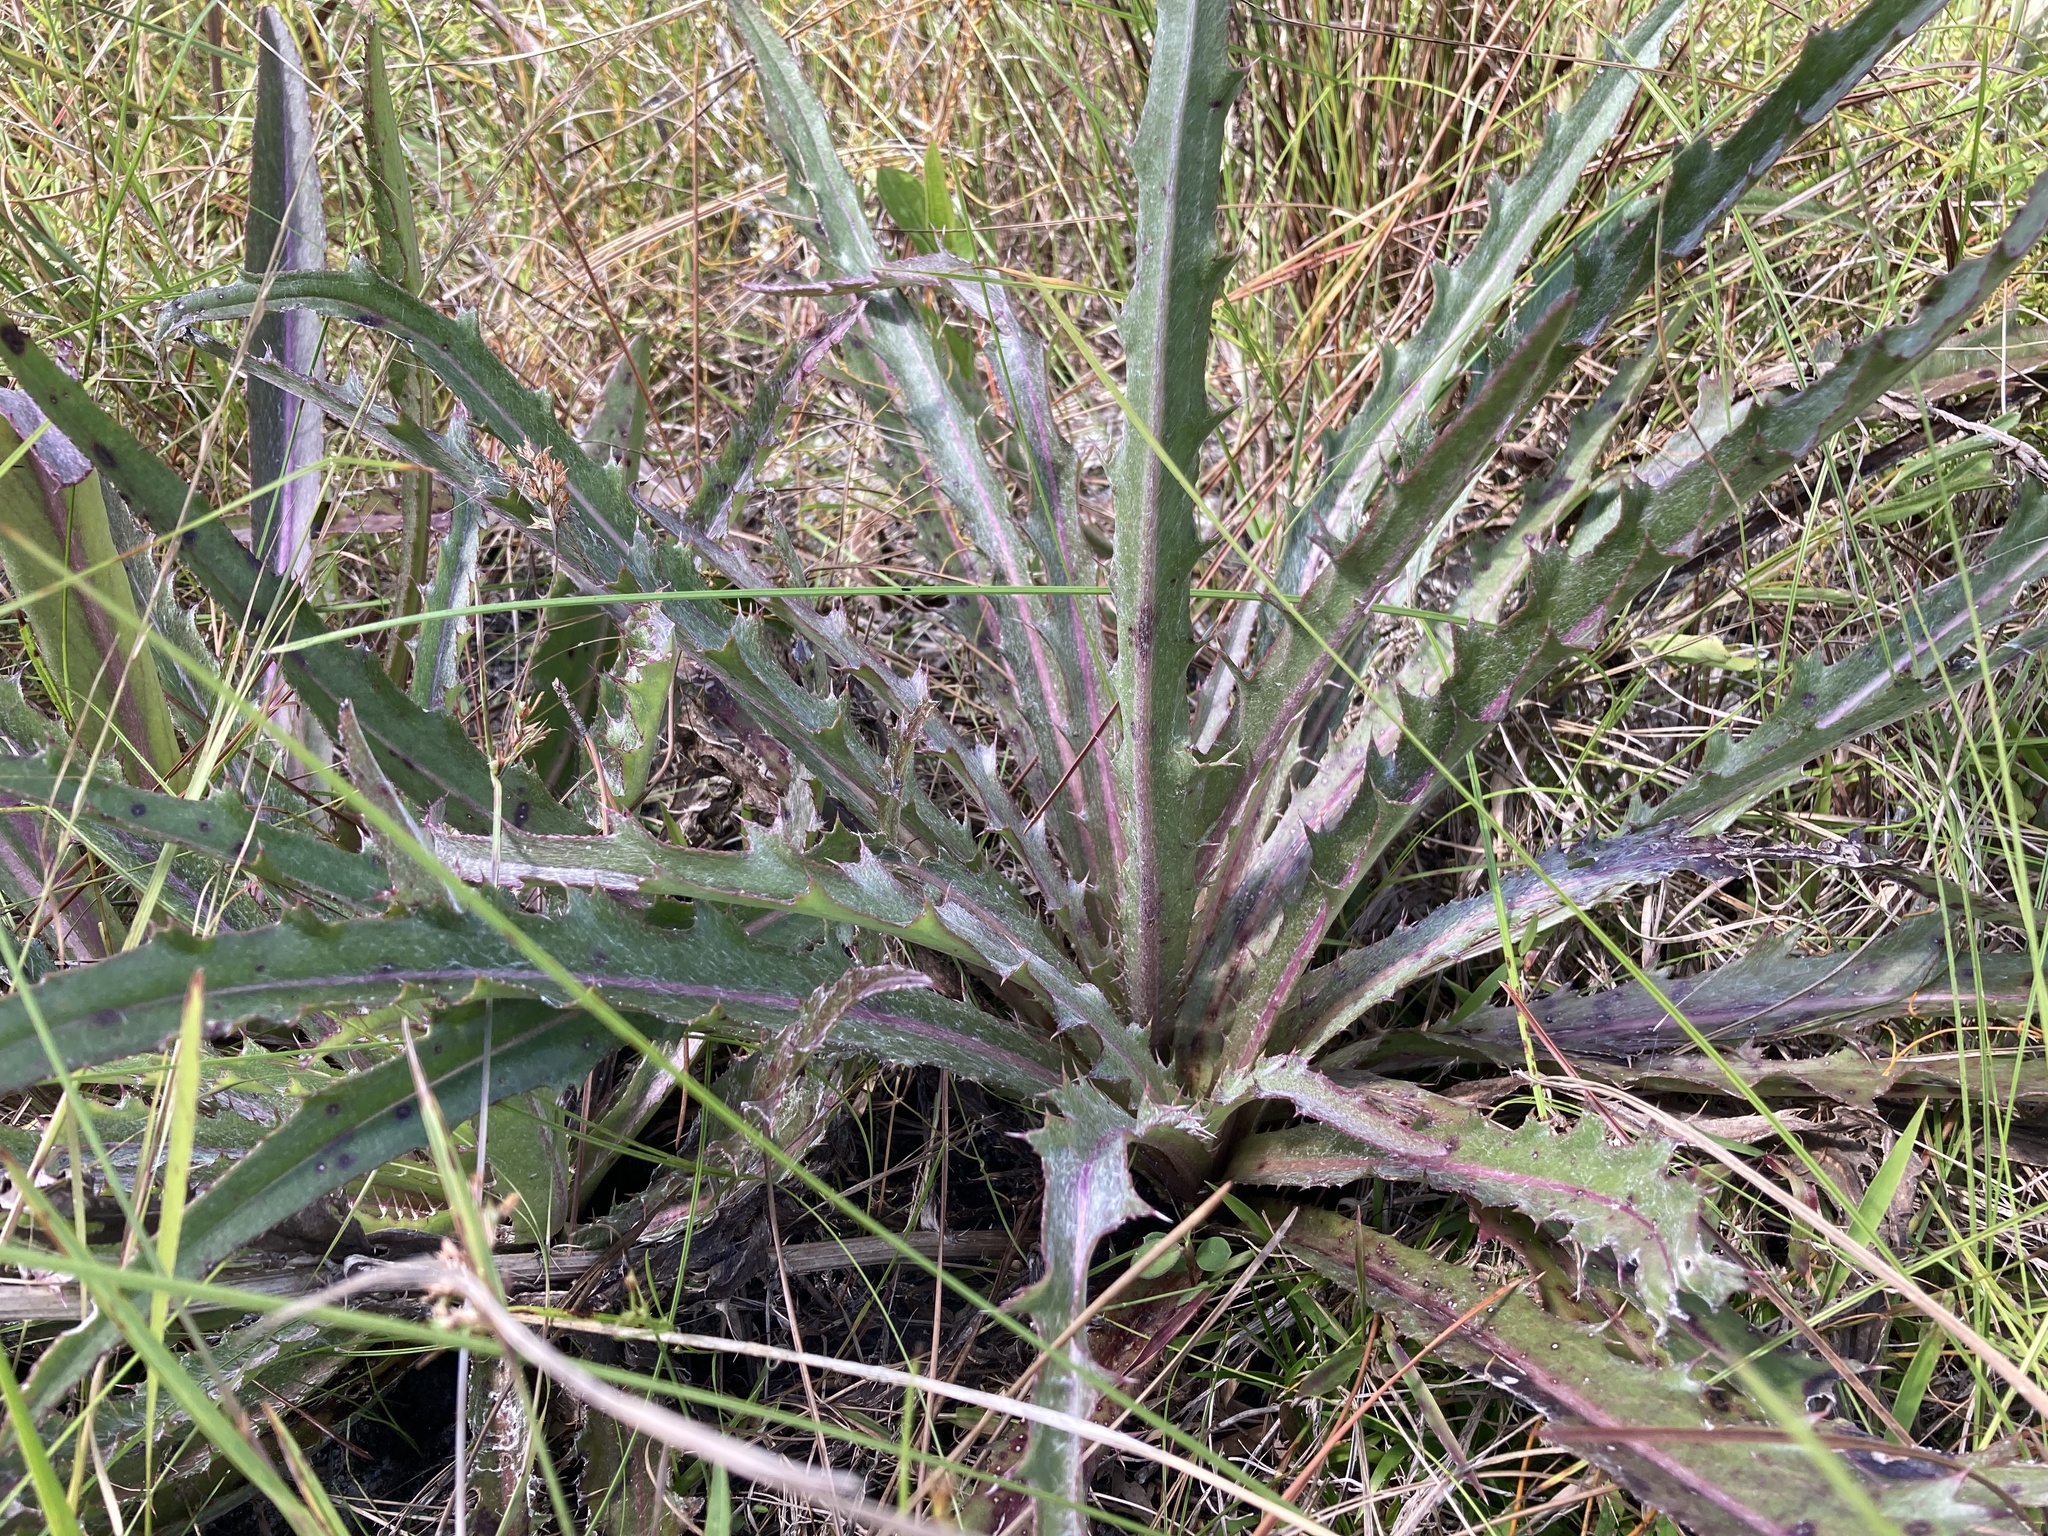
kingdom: Plantae
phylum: Tracheophyta
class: Magnoliopsida
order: Asterales
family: Asteraceae
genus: Cirsium
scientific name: Cirsium horridulum
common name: Bristly thistle
